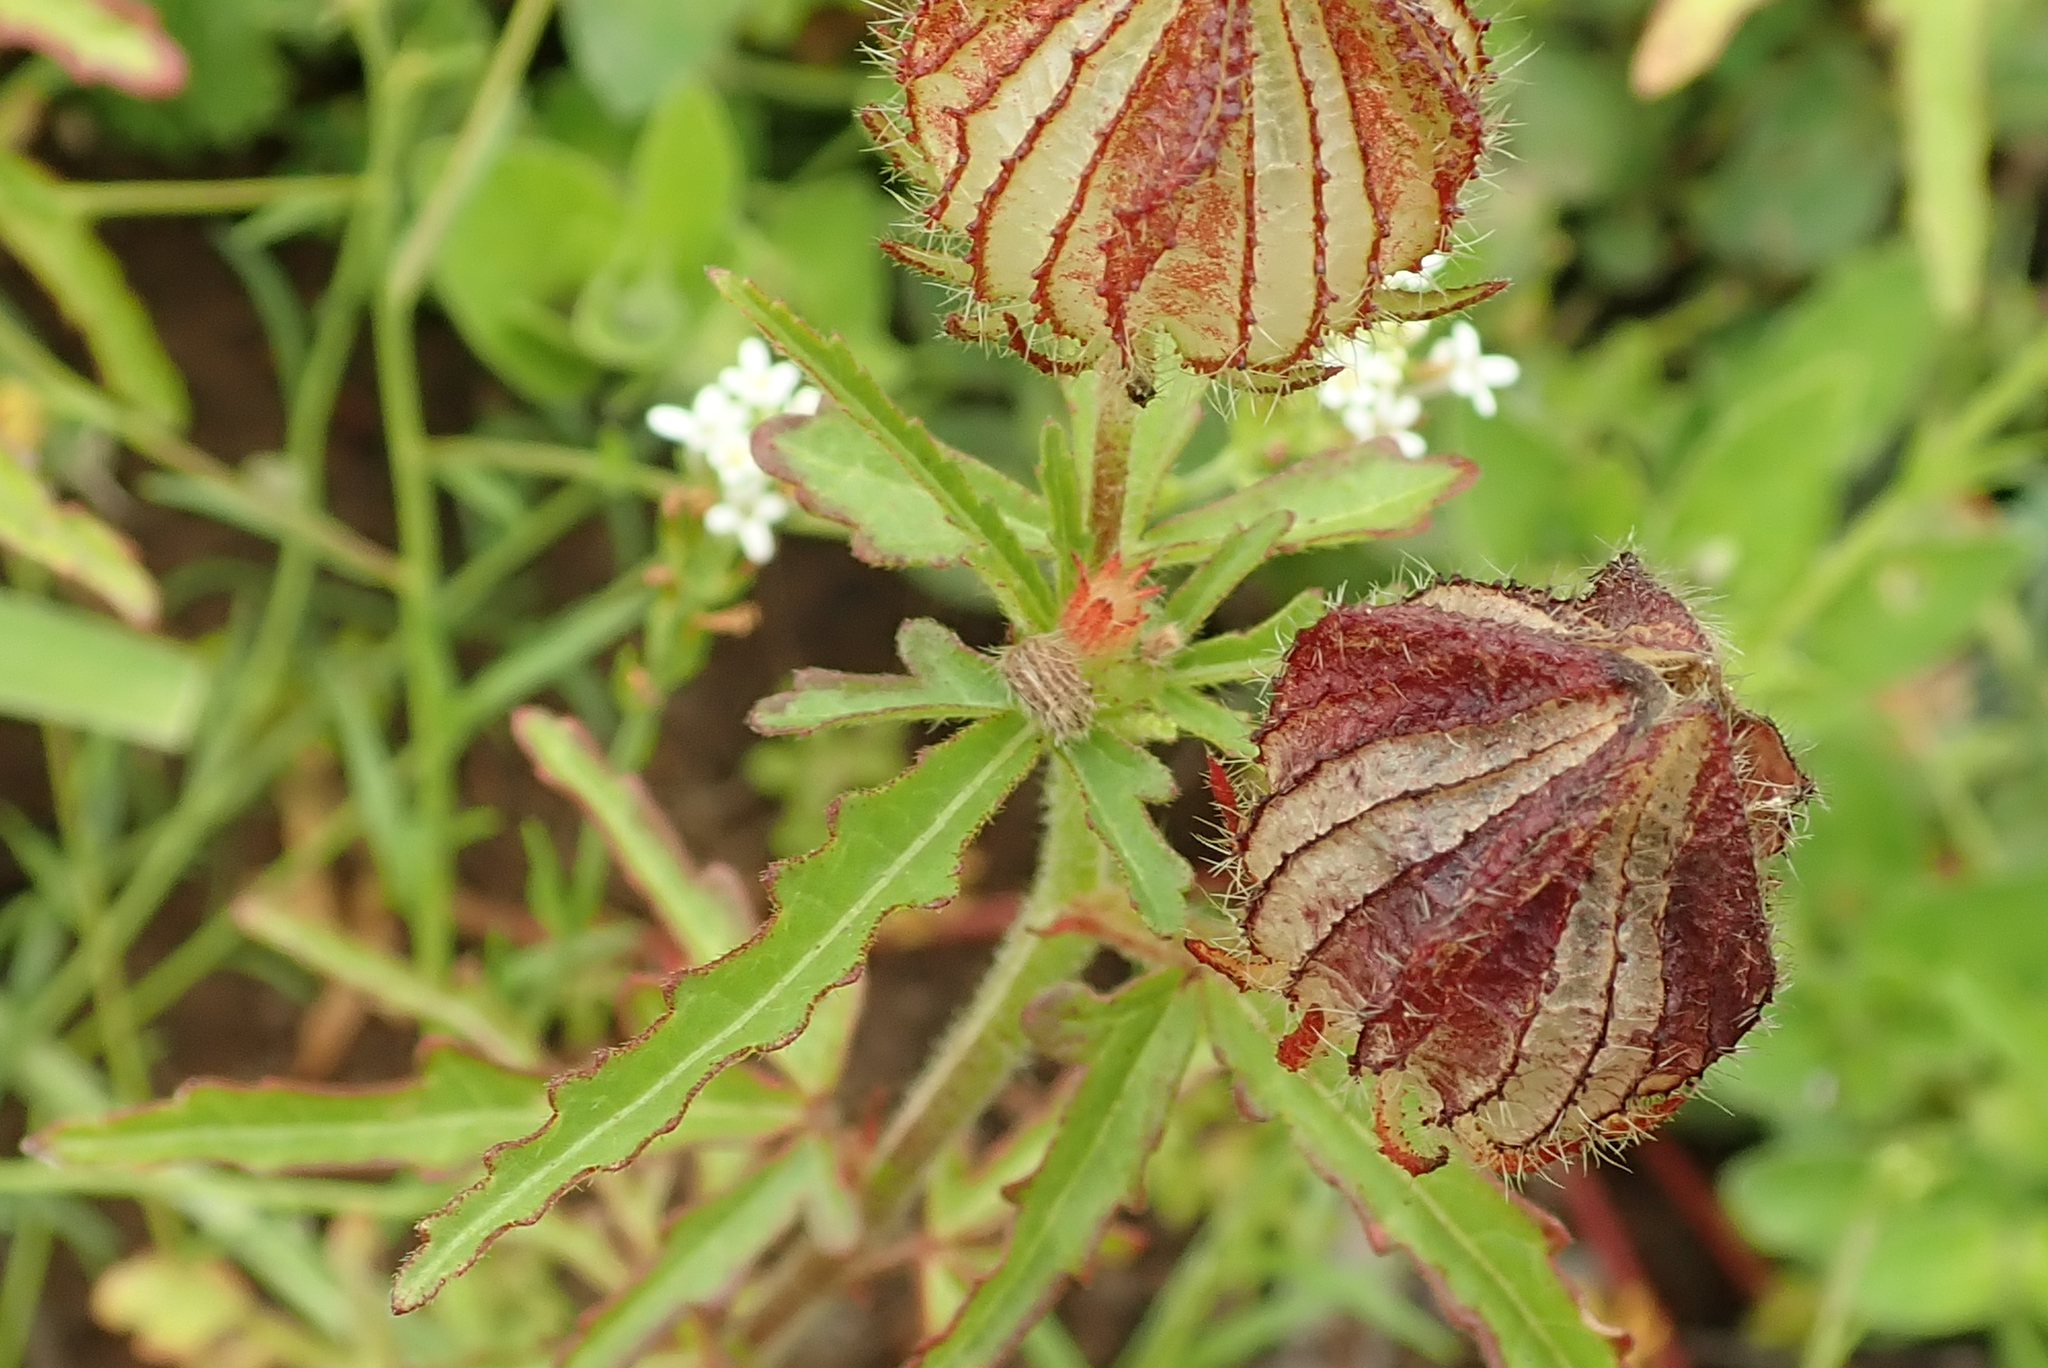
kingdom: Plantae
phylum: Tracheophyta
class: Magnoliopsida
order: Malvales
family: Malvaceae
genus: Hibiscus
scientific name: Hibiscus trionum
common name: Bladder ketmia
